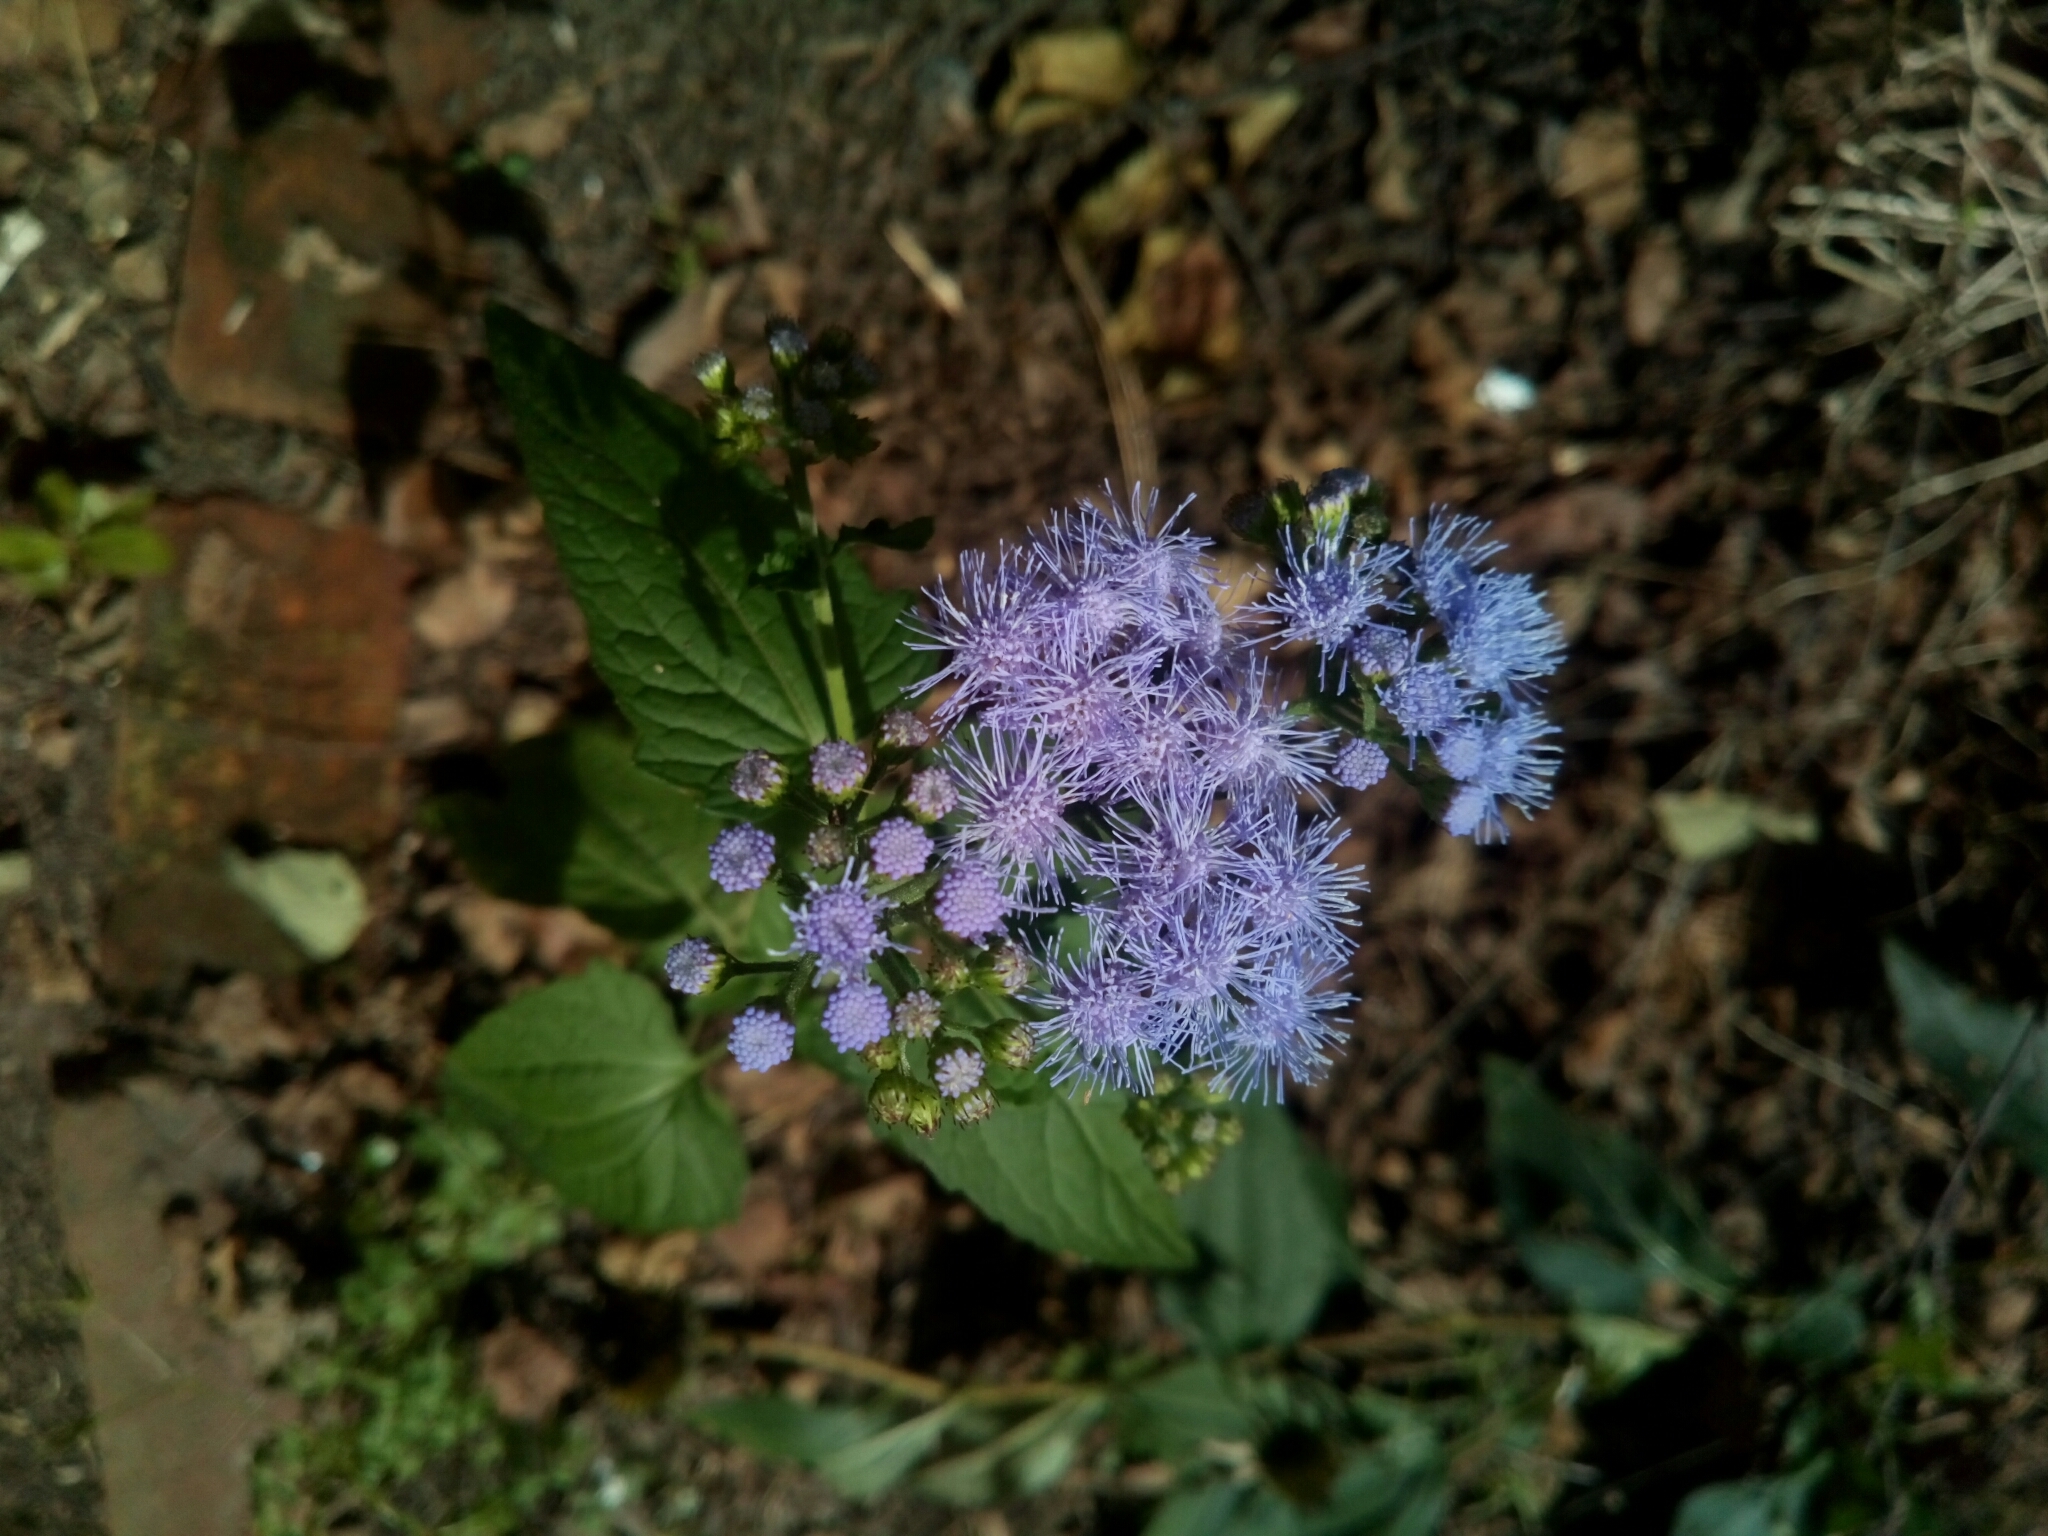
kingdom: Plantae
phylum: Tracheophyta
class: Magnoliopsida
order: Asterales
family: Asteraceae
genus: Conoclinium
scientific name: Conoclinium coelestinum
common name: Blue mistflower
